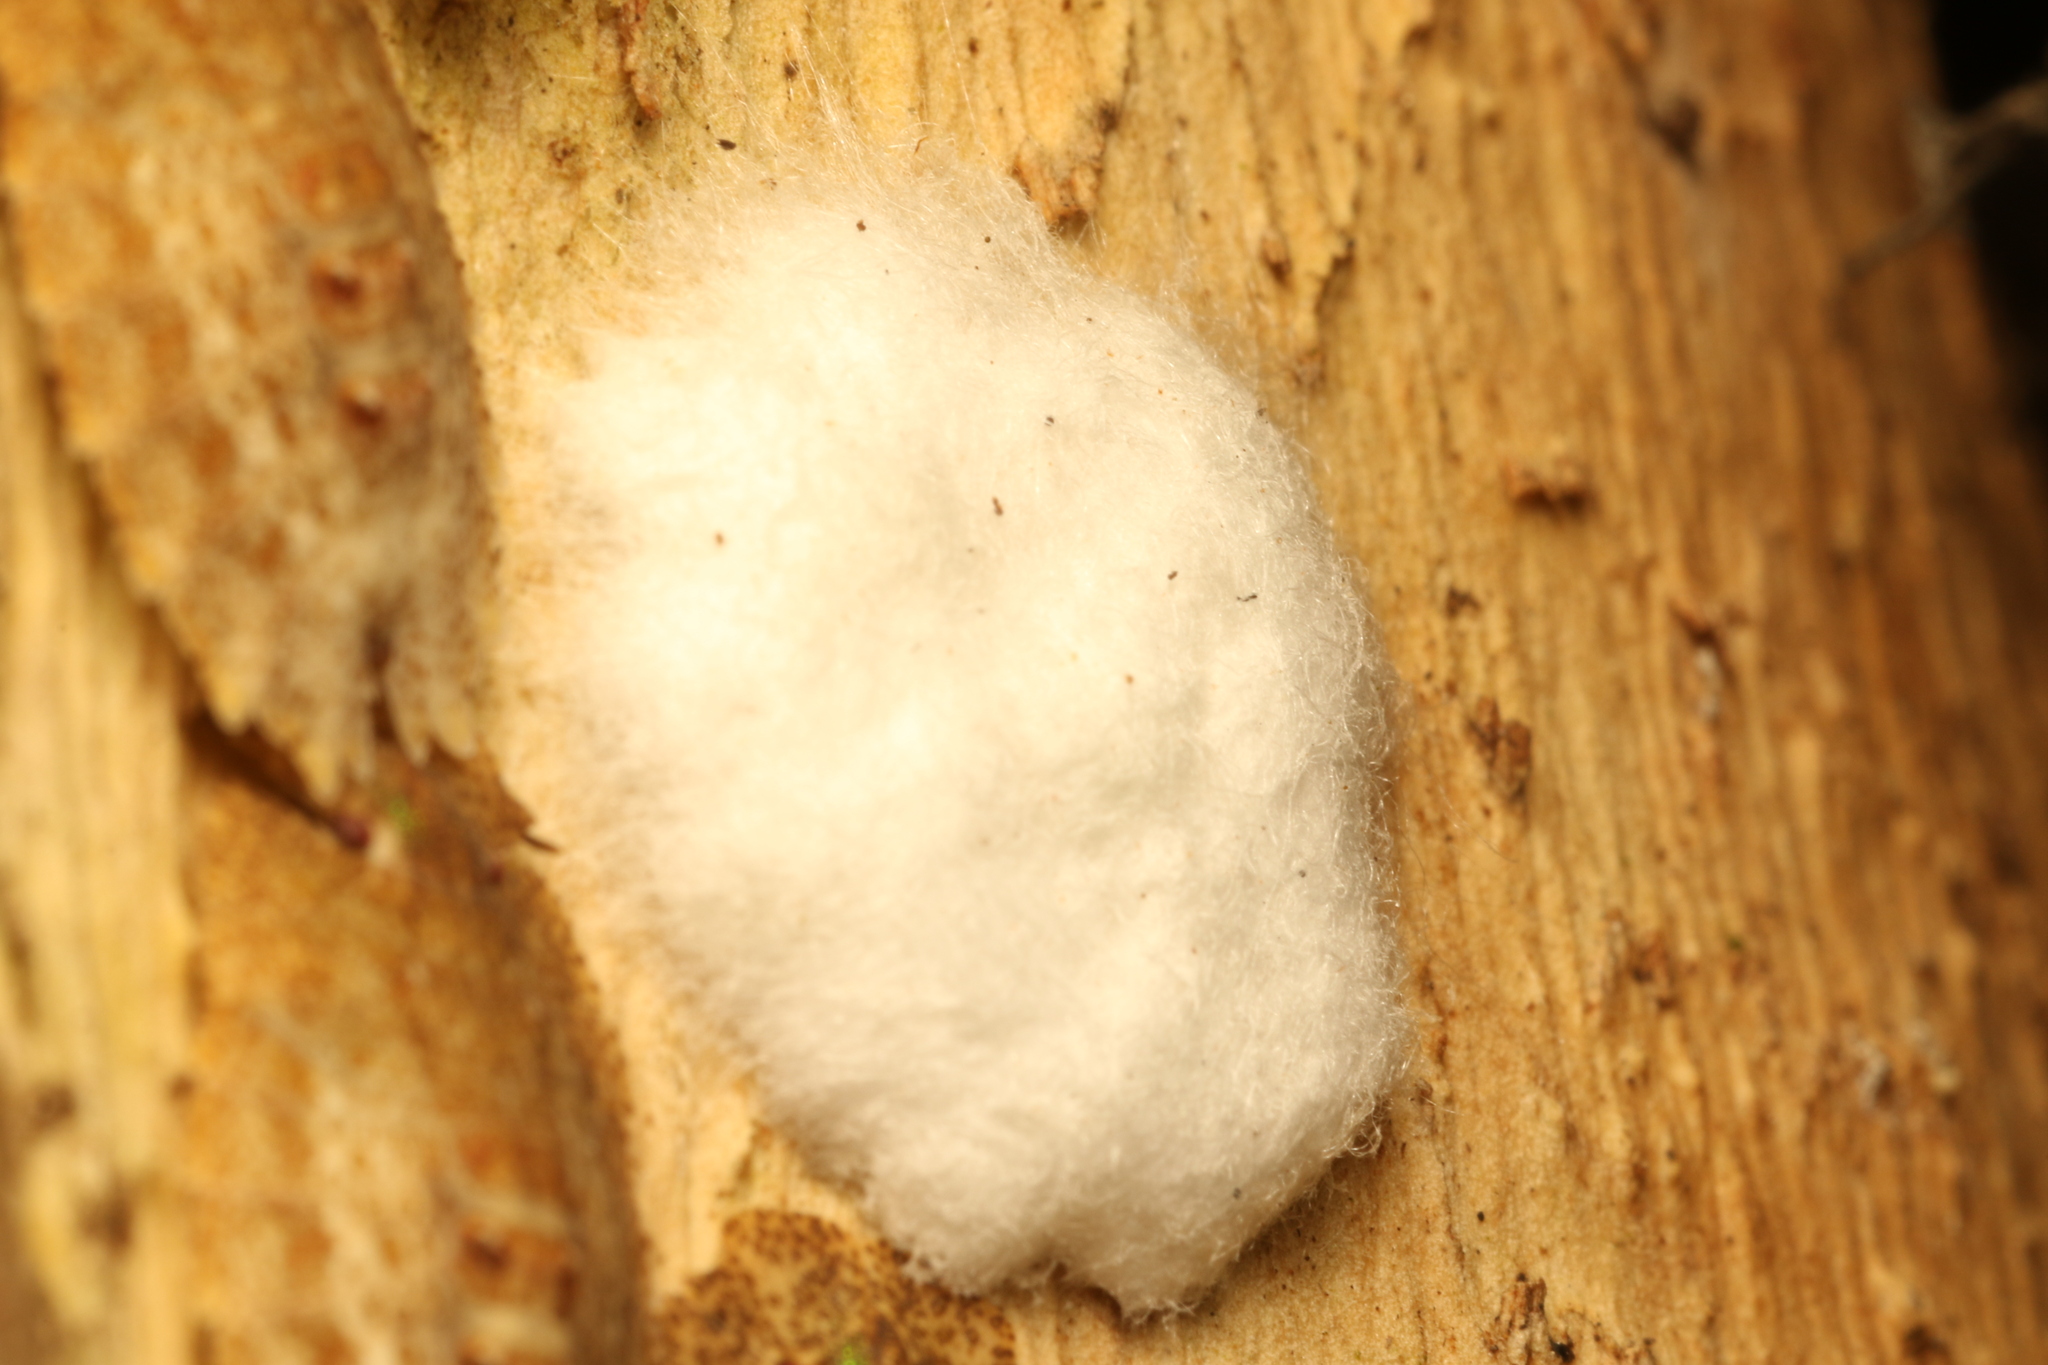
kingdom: Animalia
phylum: Arthropoda
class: Insecta
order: Hemiptera
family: Phleides
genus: Phloea
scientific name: Phloea
